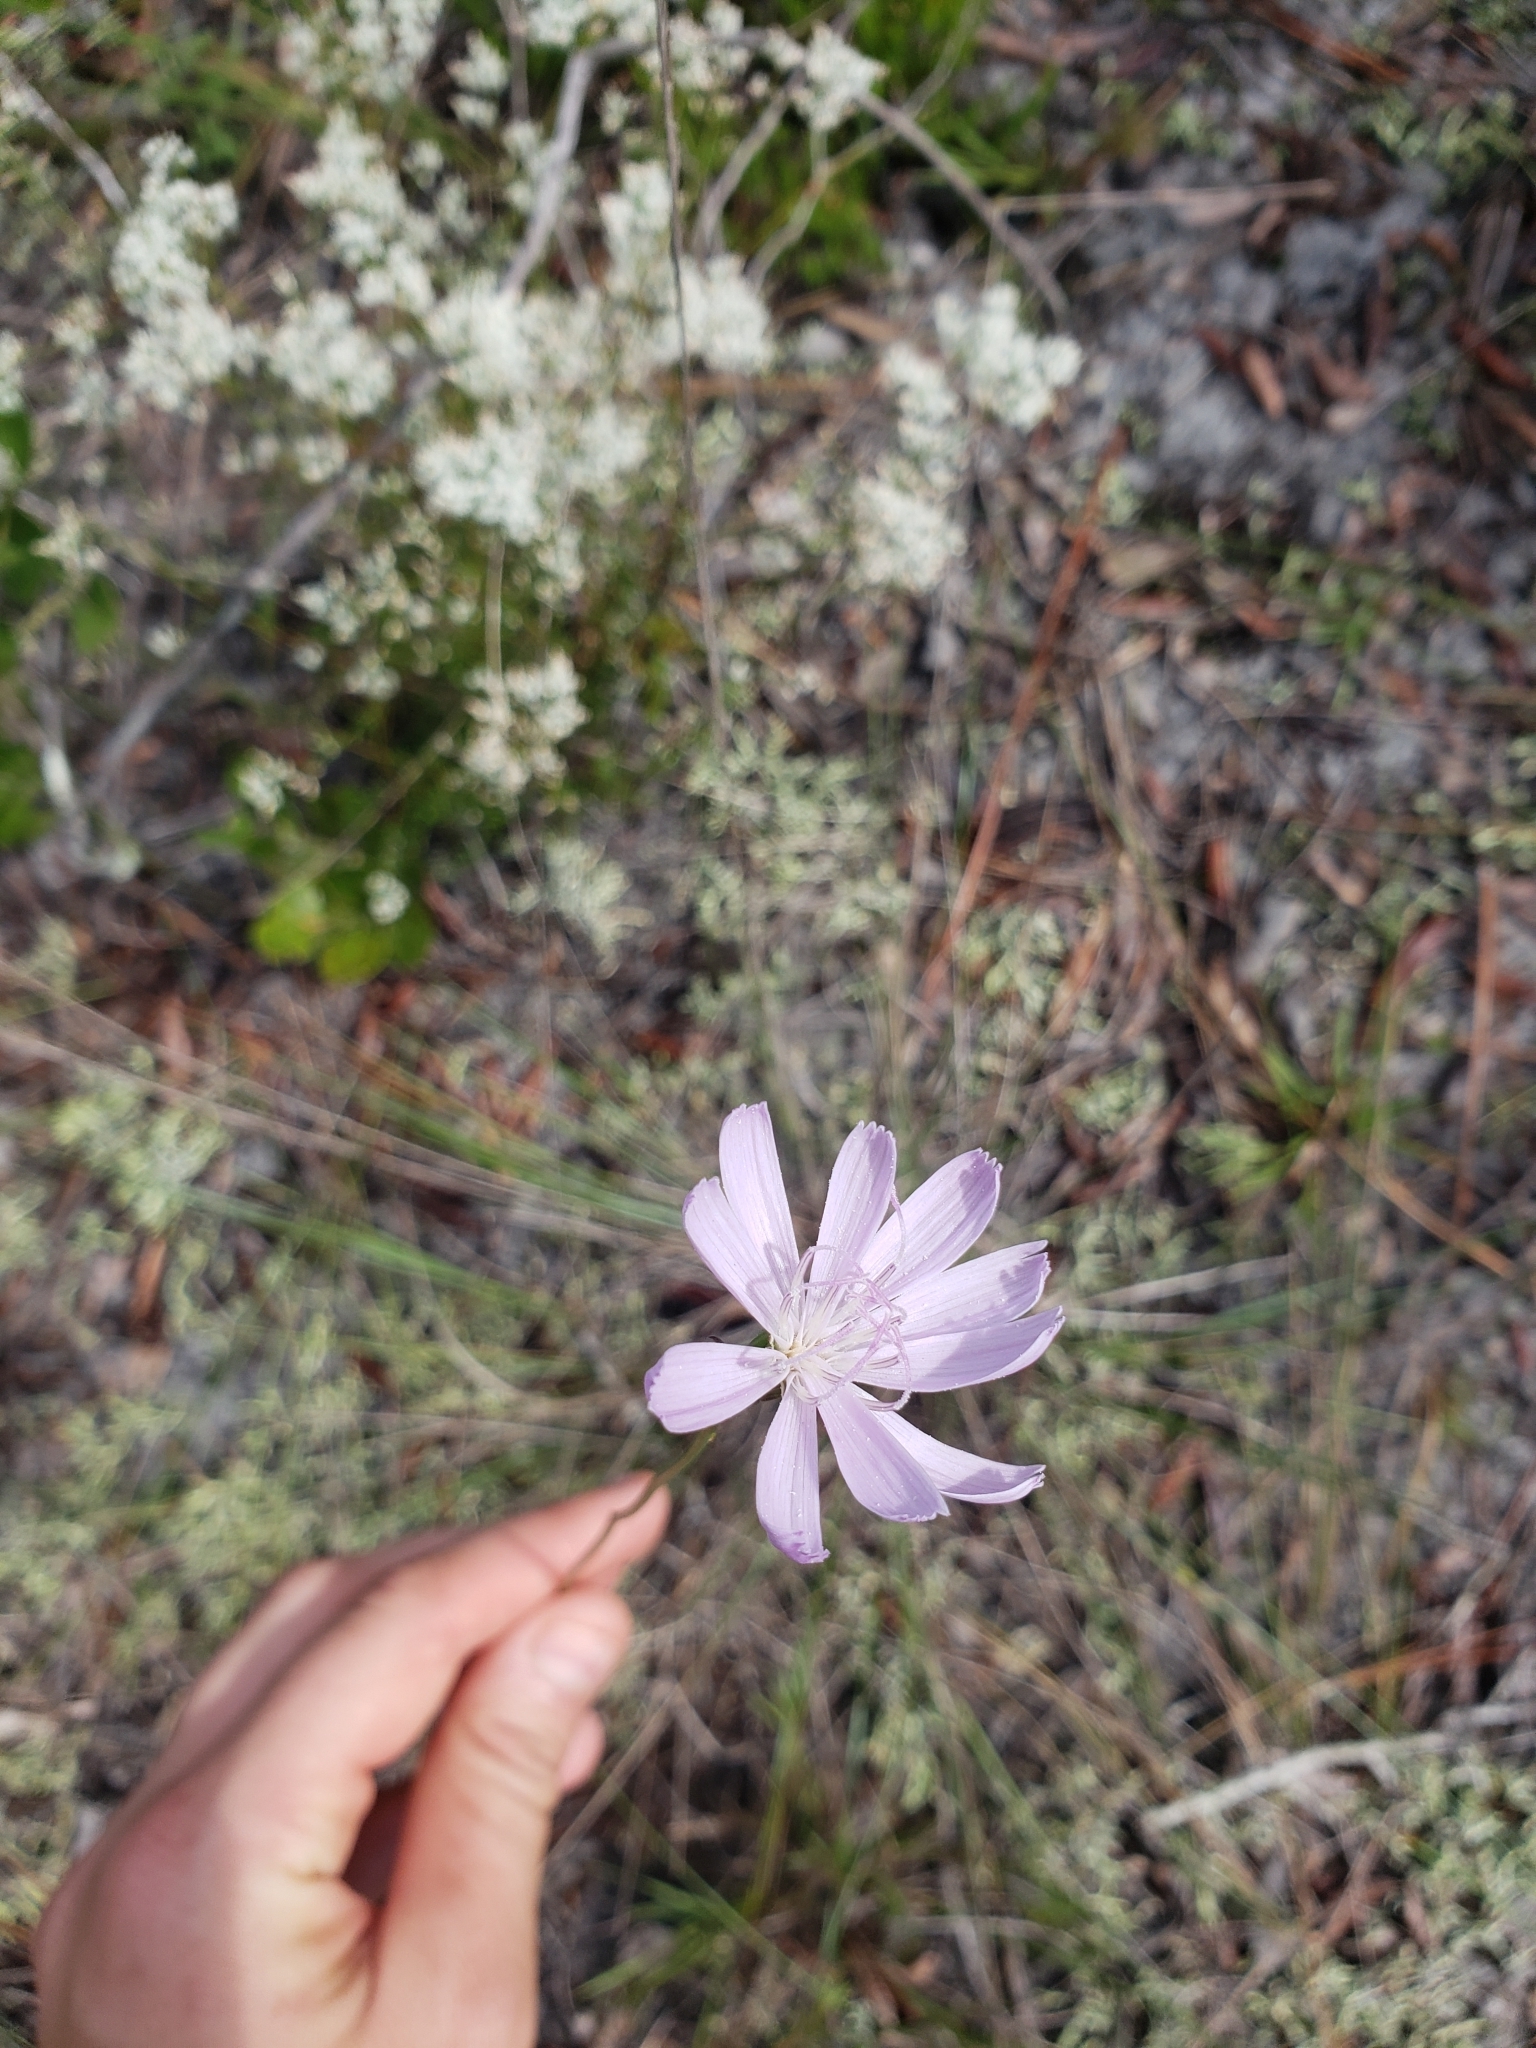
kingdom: Plantae
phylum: Tracheophyta
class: Magnoliopsida
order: Asterales
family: Asteraceae
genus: Lygodesmia
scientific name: Lygodesmia aphylla
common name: Rose-rush
